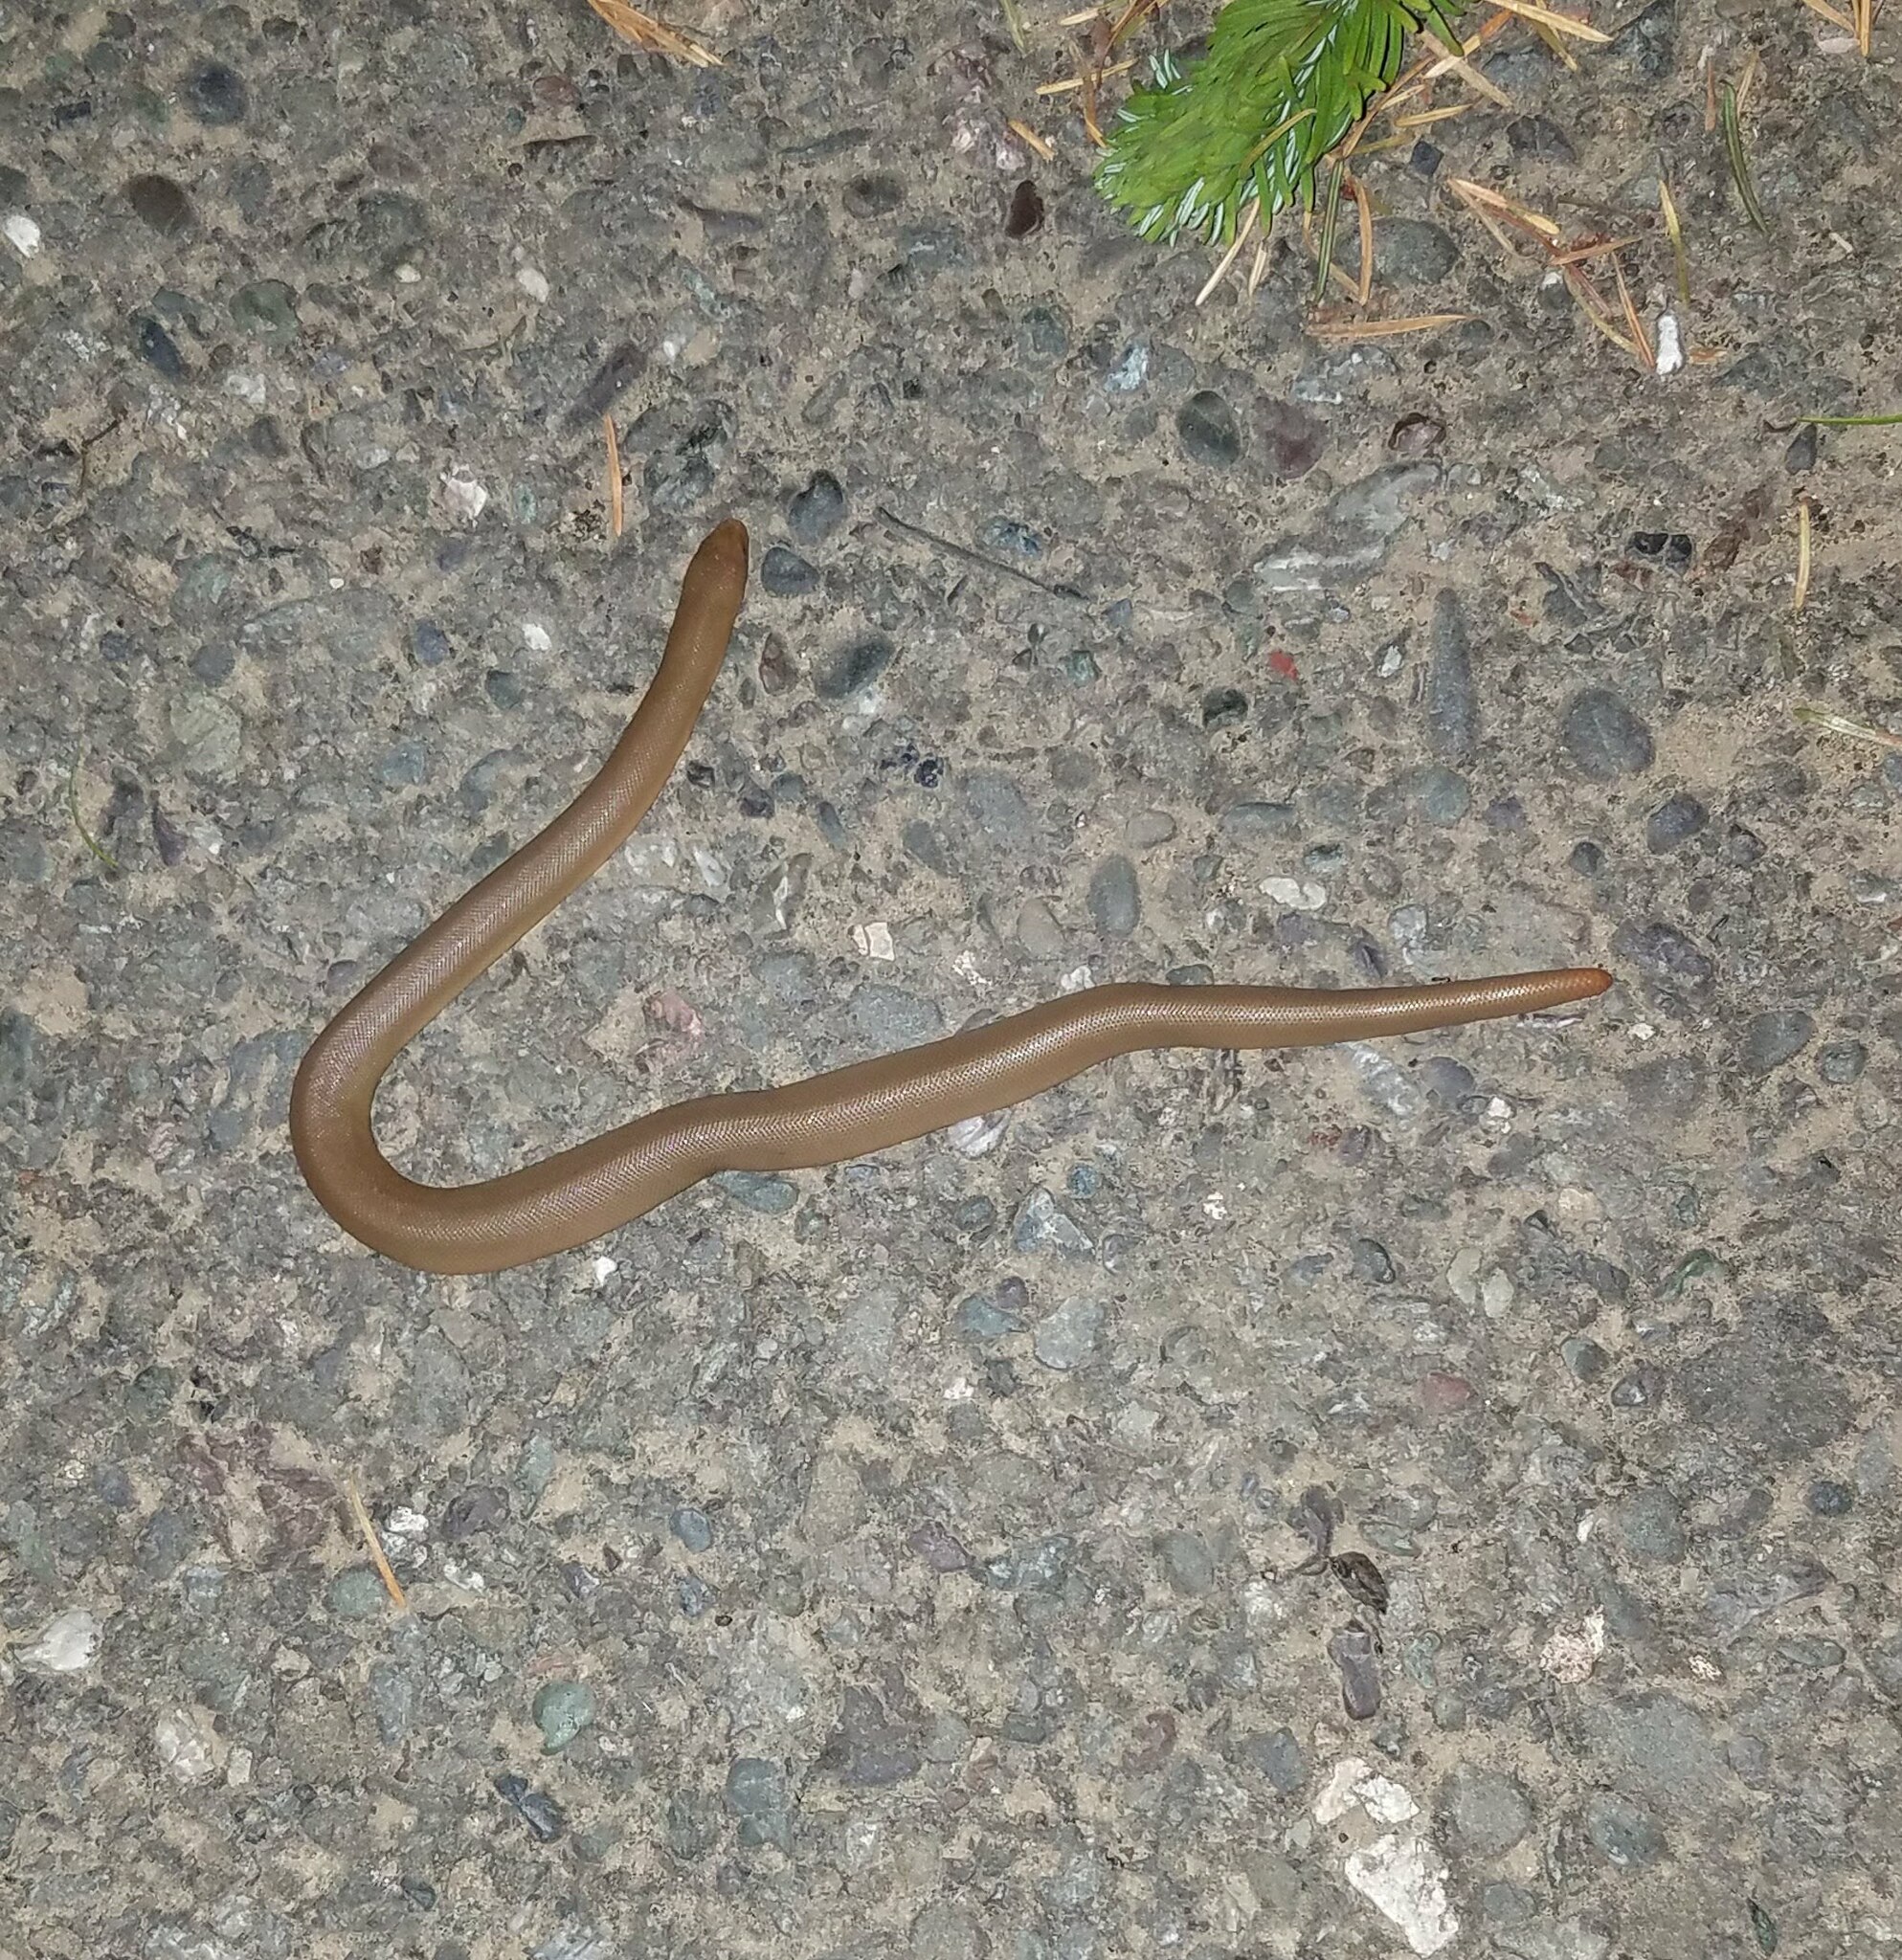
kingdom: Animalia
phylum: Chordata
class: Squamata
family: Boidae
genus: Charina
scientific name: Charina bottae
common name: Northern rubber boa
